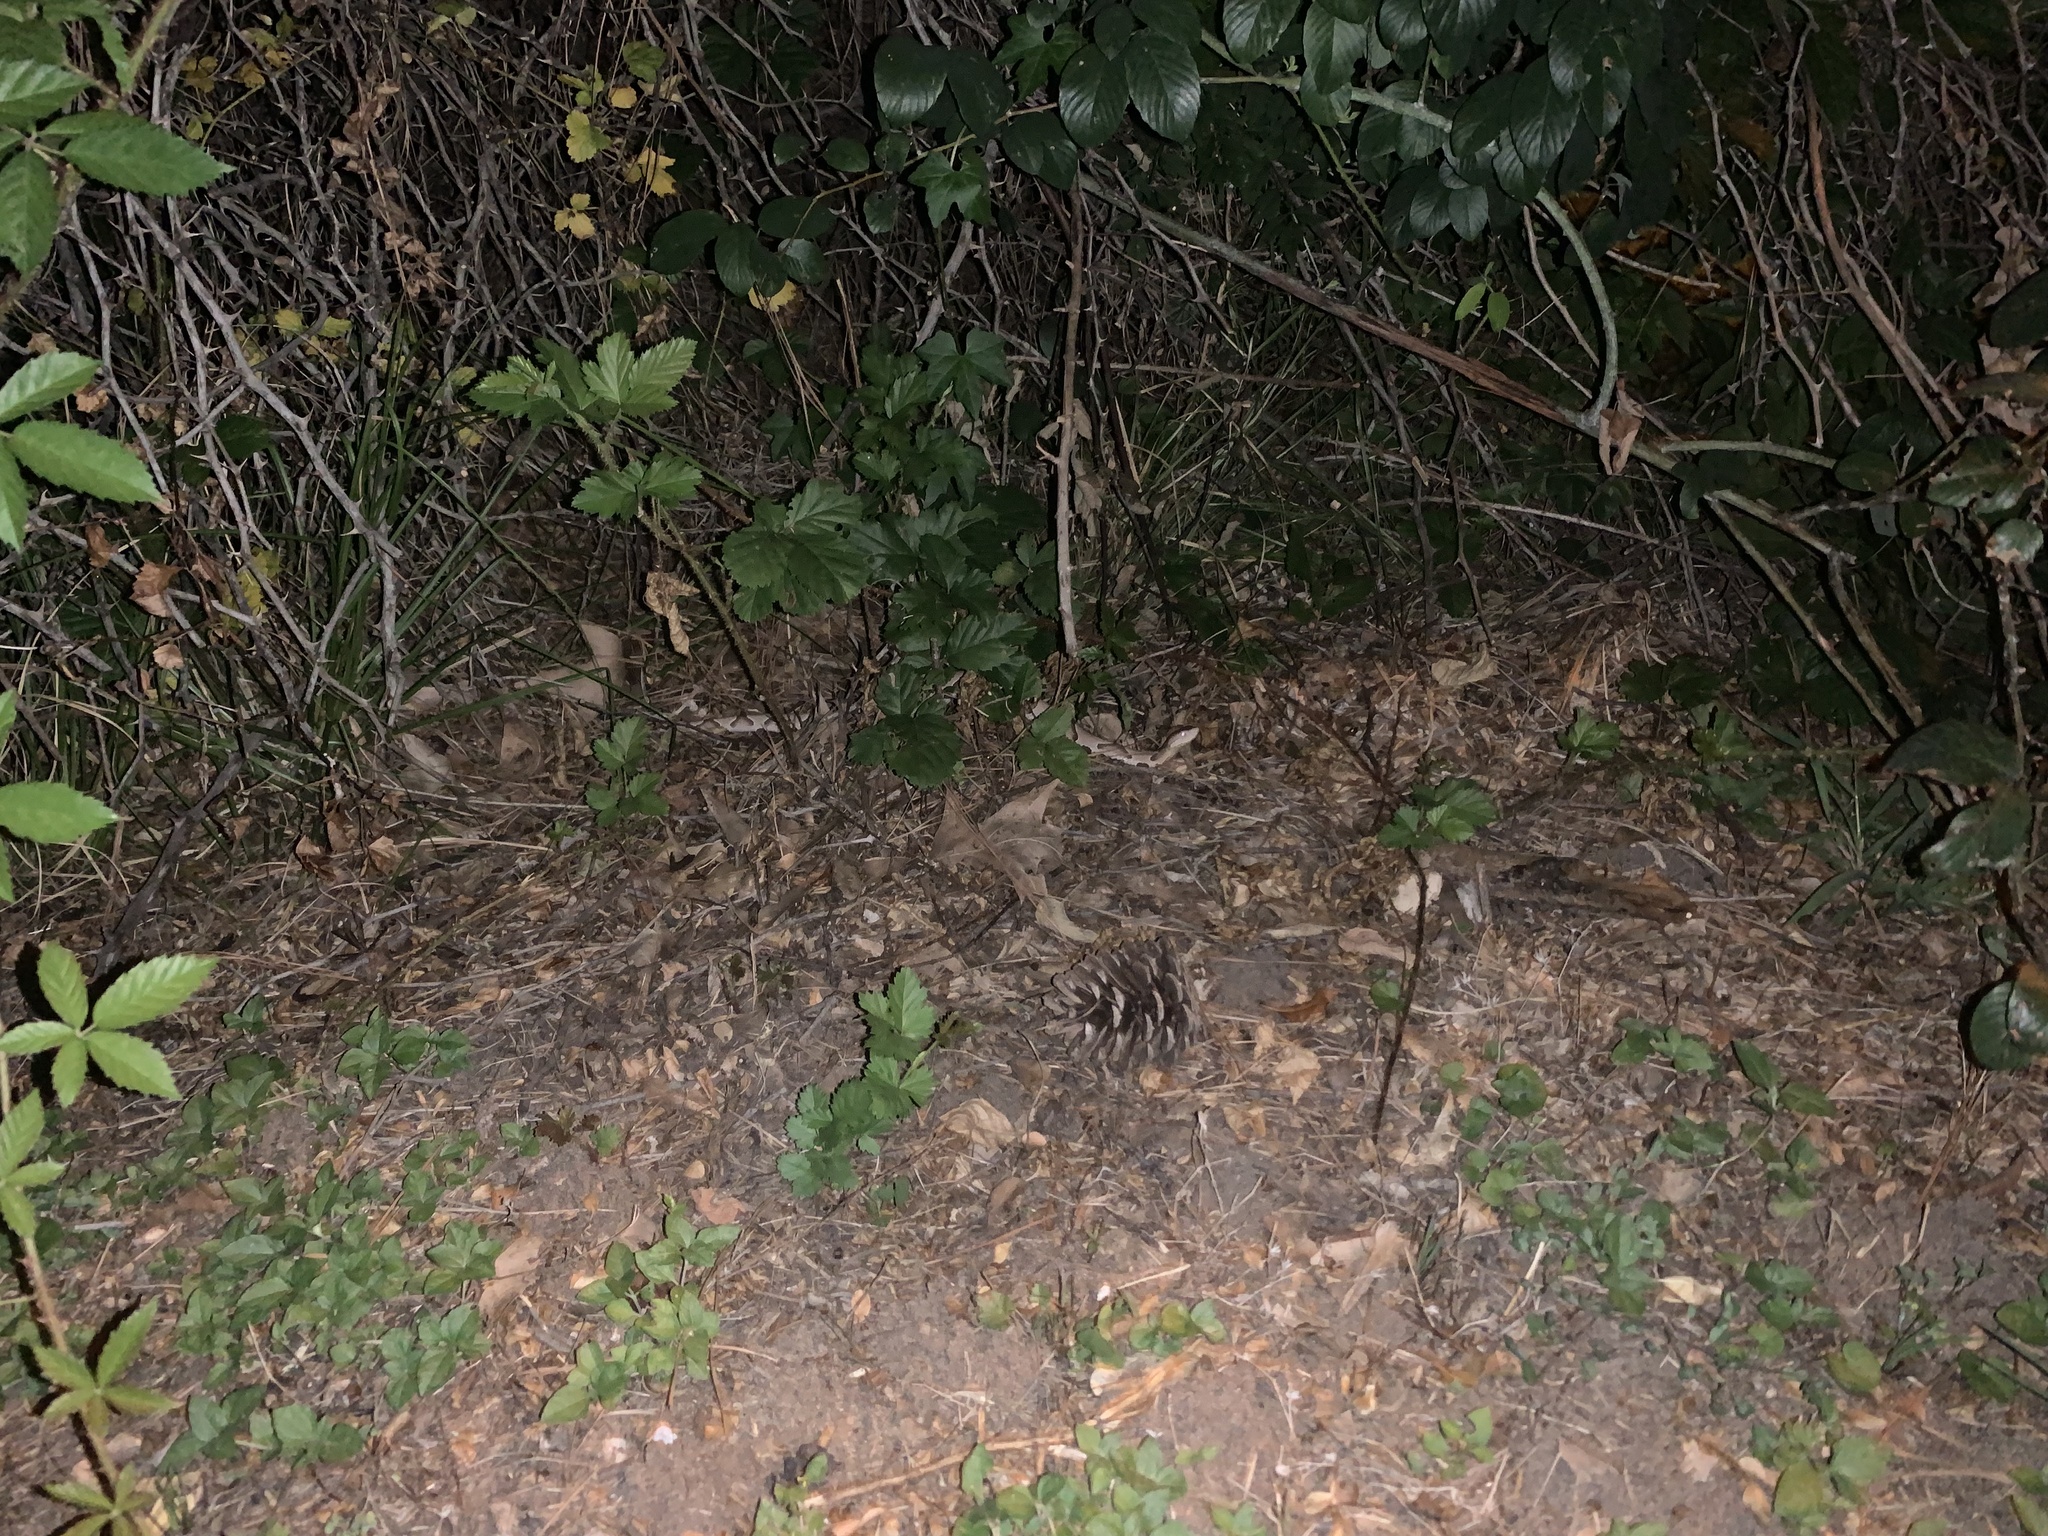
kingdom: Animalia
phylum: Chordata
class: Squamata
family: Viperidae
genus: Agkistrodon
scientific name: Agkistrodon contortrix
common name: Northern copperhead
